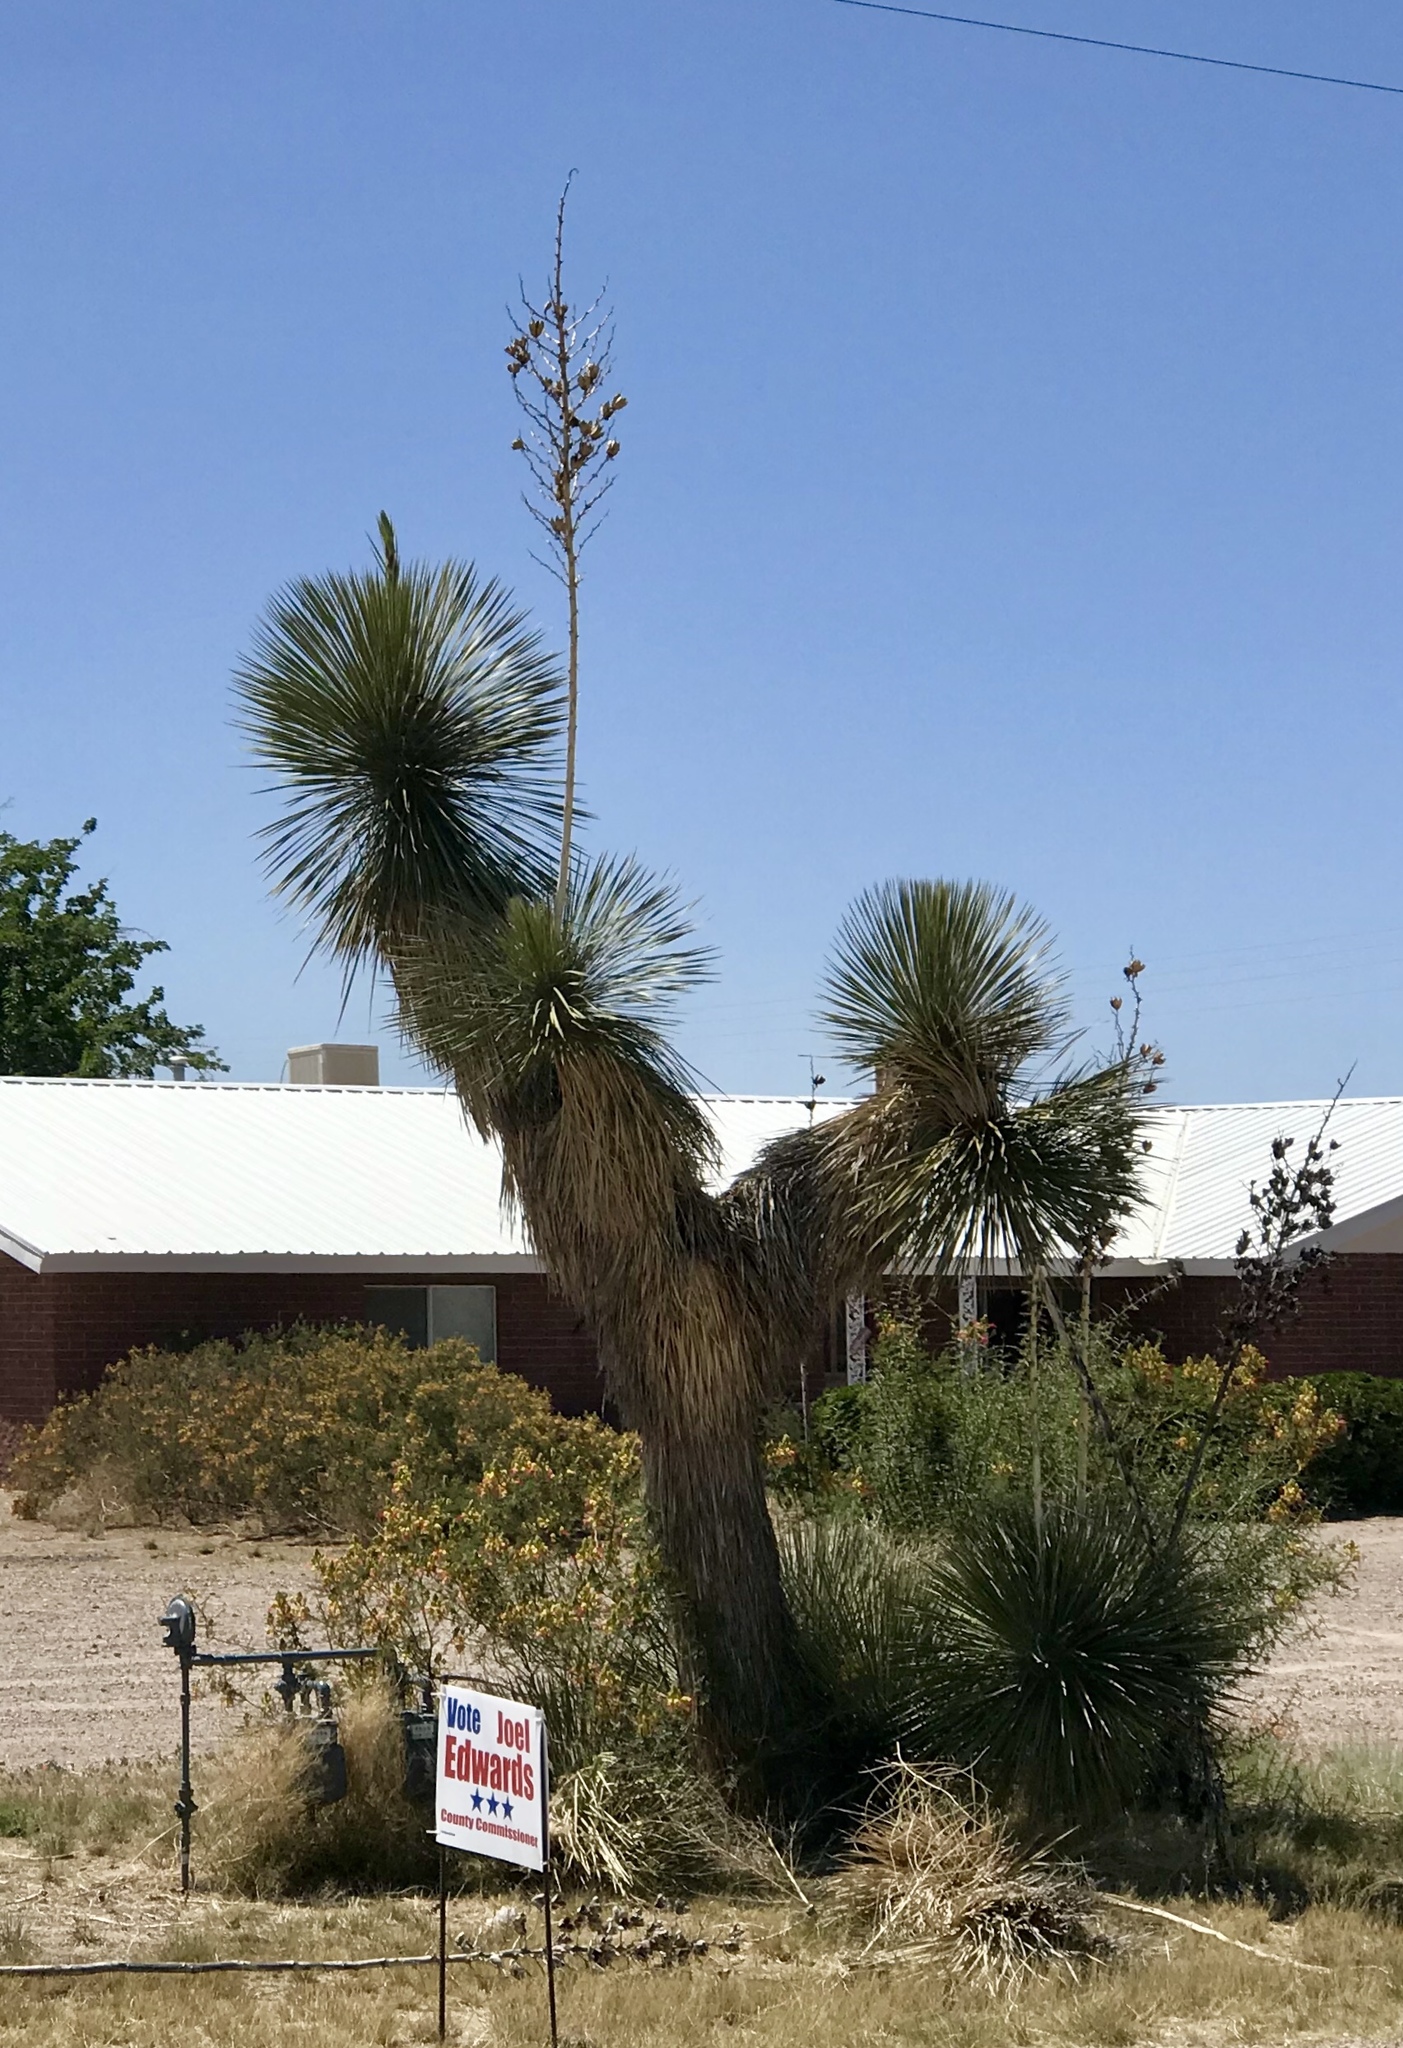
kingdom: Plantae
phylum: Tracheophyta
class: Liliopsida
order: Asparagales
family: Asparagaceae
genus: Yucca
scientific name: Yucca elata
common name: Palmella
